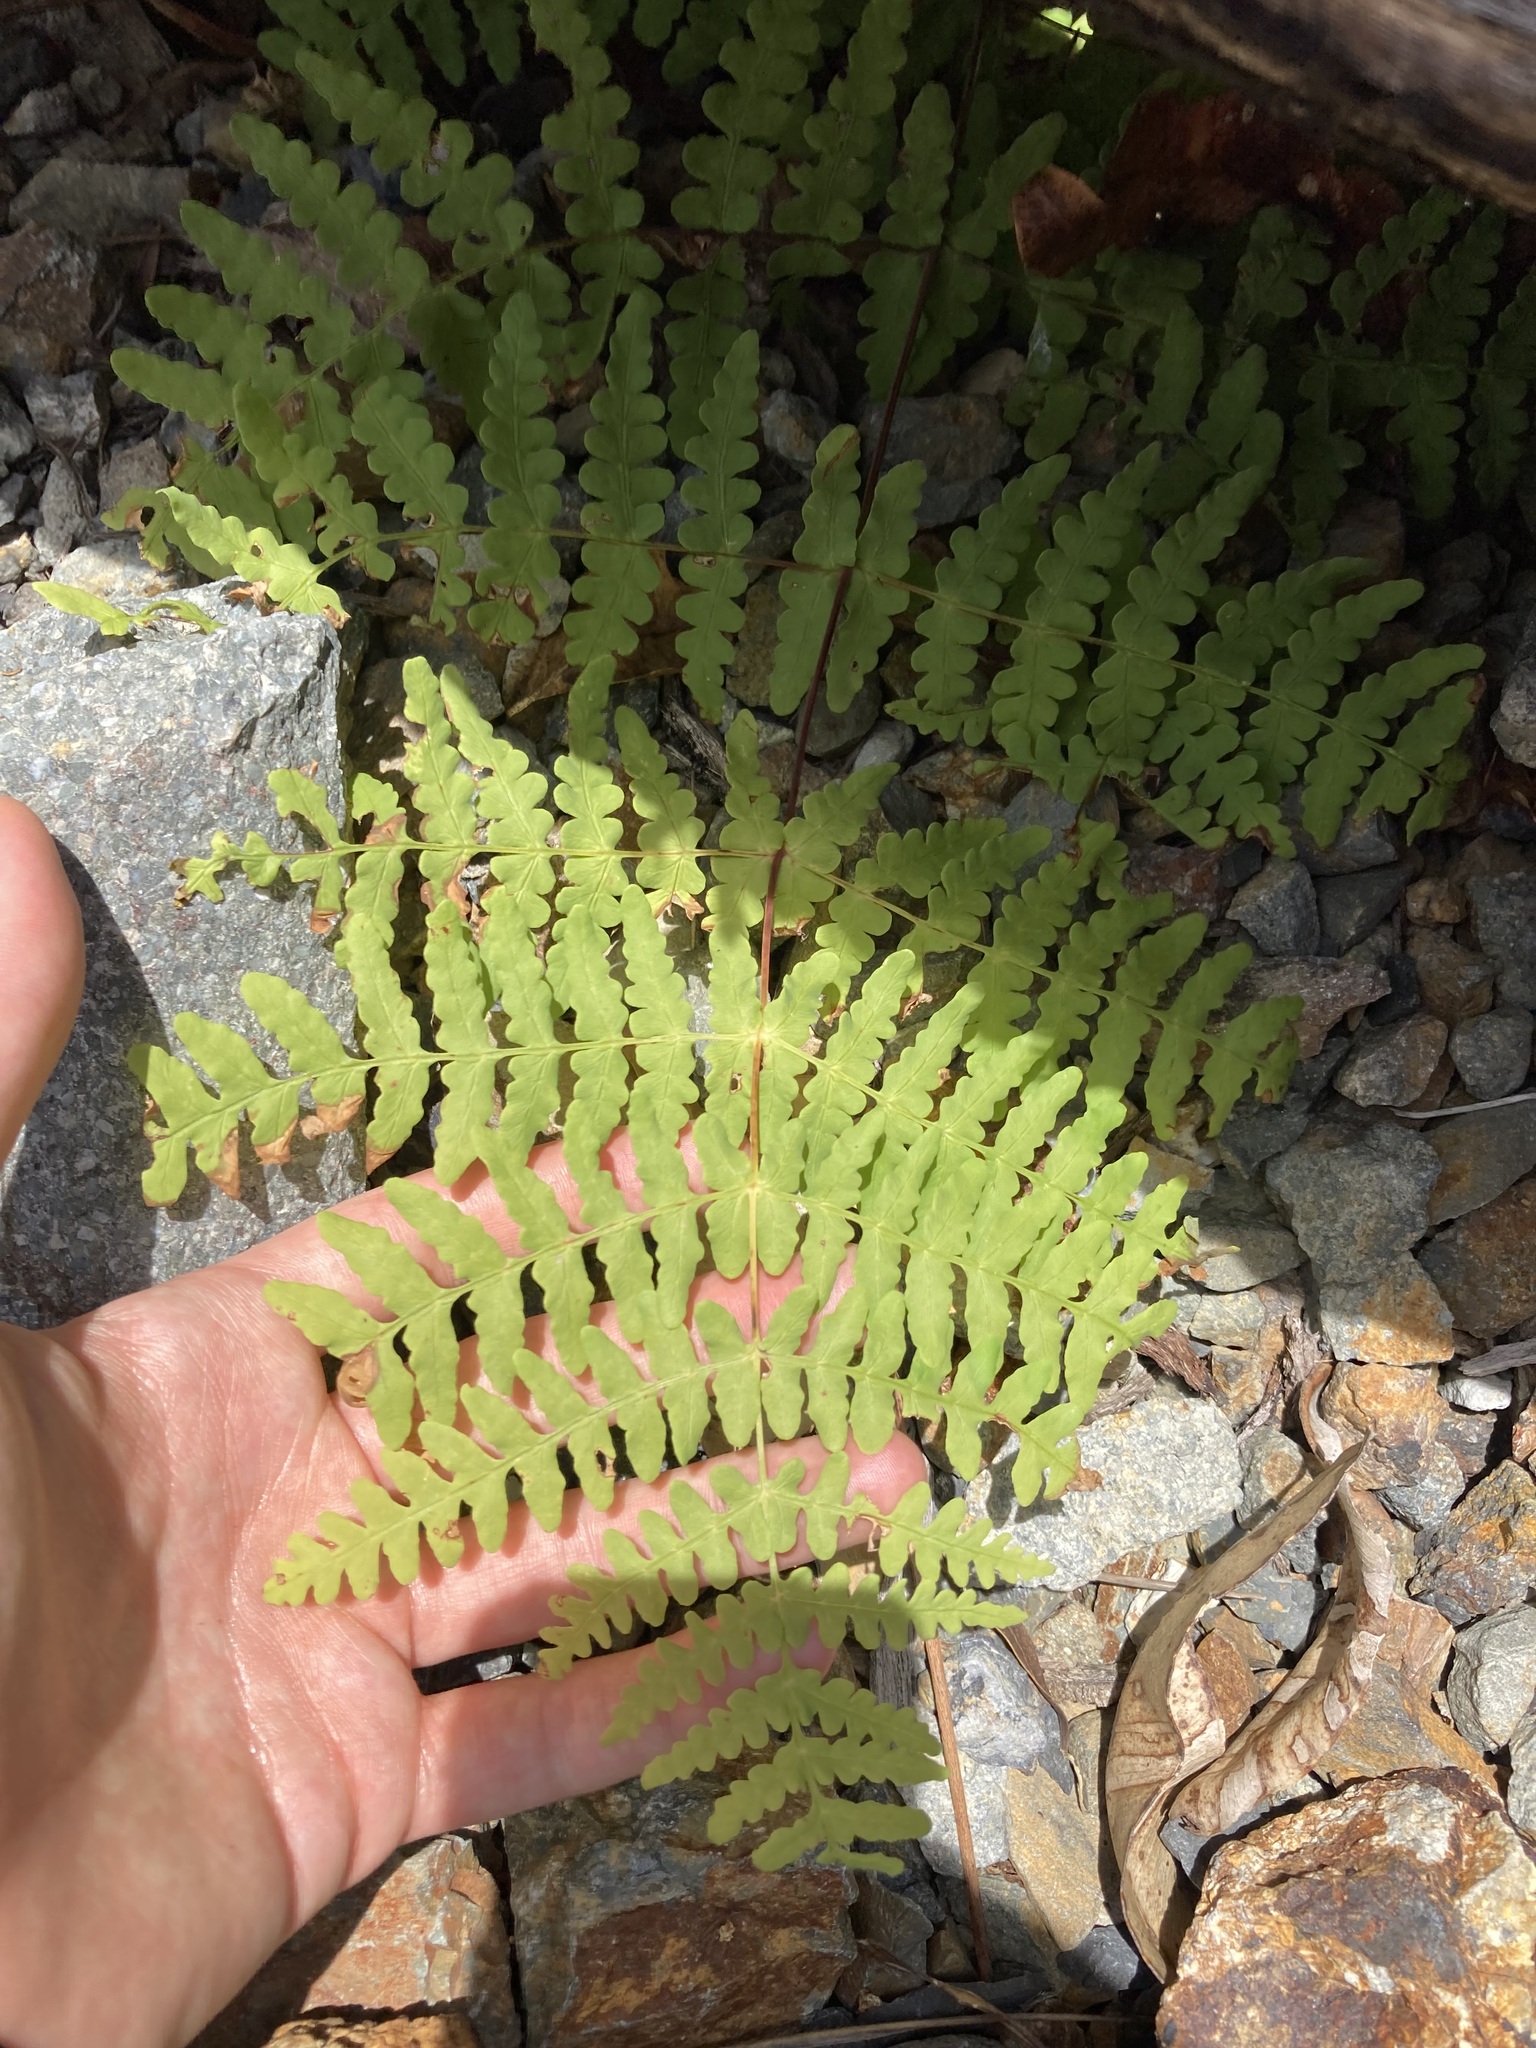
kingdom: Plantae
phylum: Tracheophyta
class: Polypodiopsida
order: Polypodiales
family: Dennstaedtiaceae
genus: Histiopteris
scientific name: Histiopteris incisa
